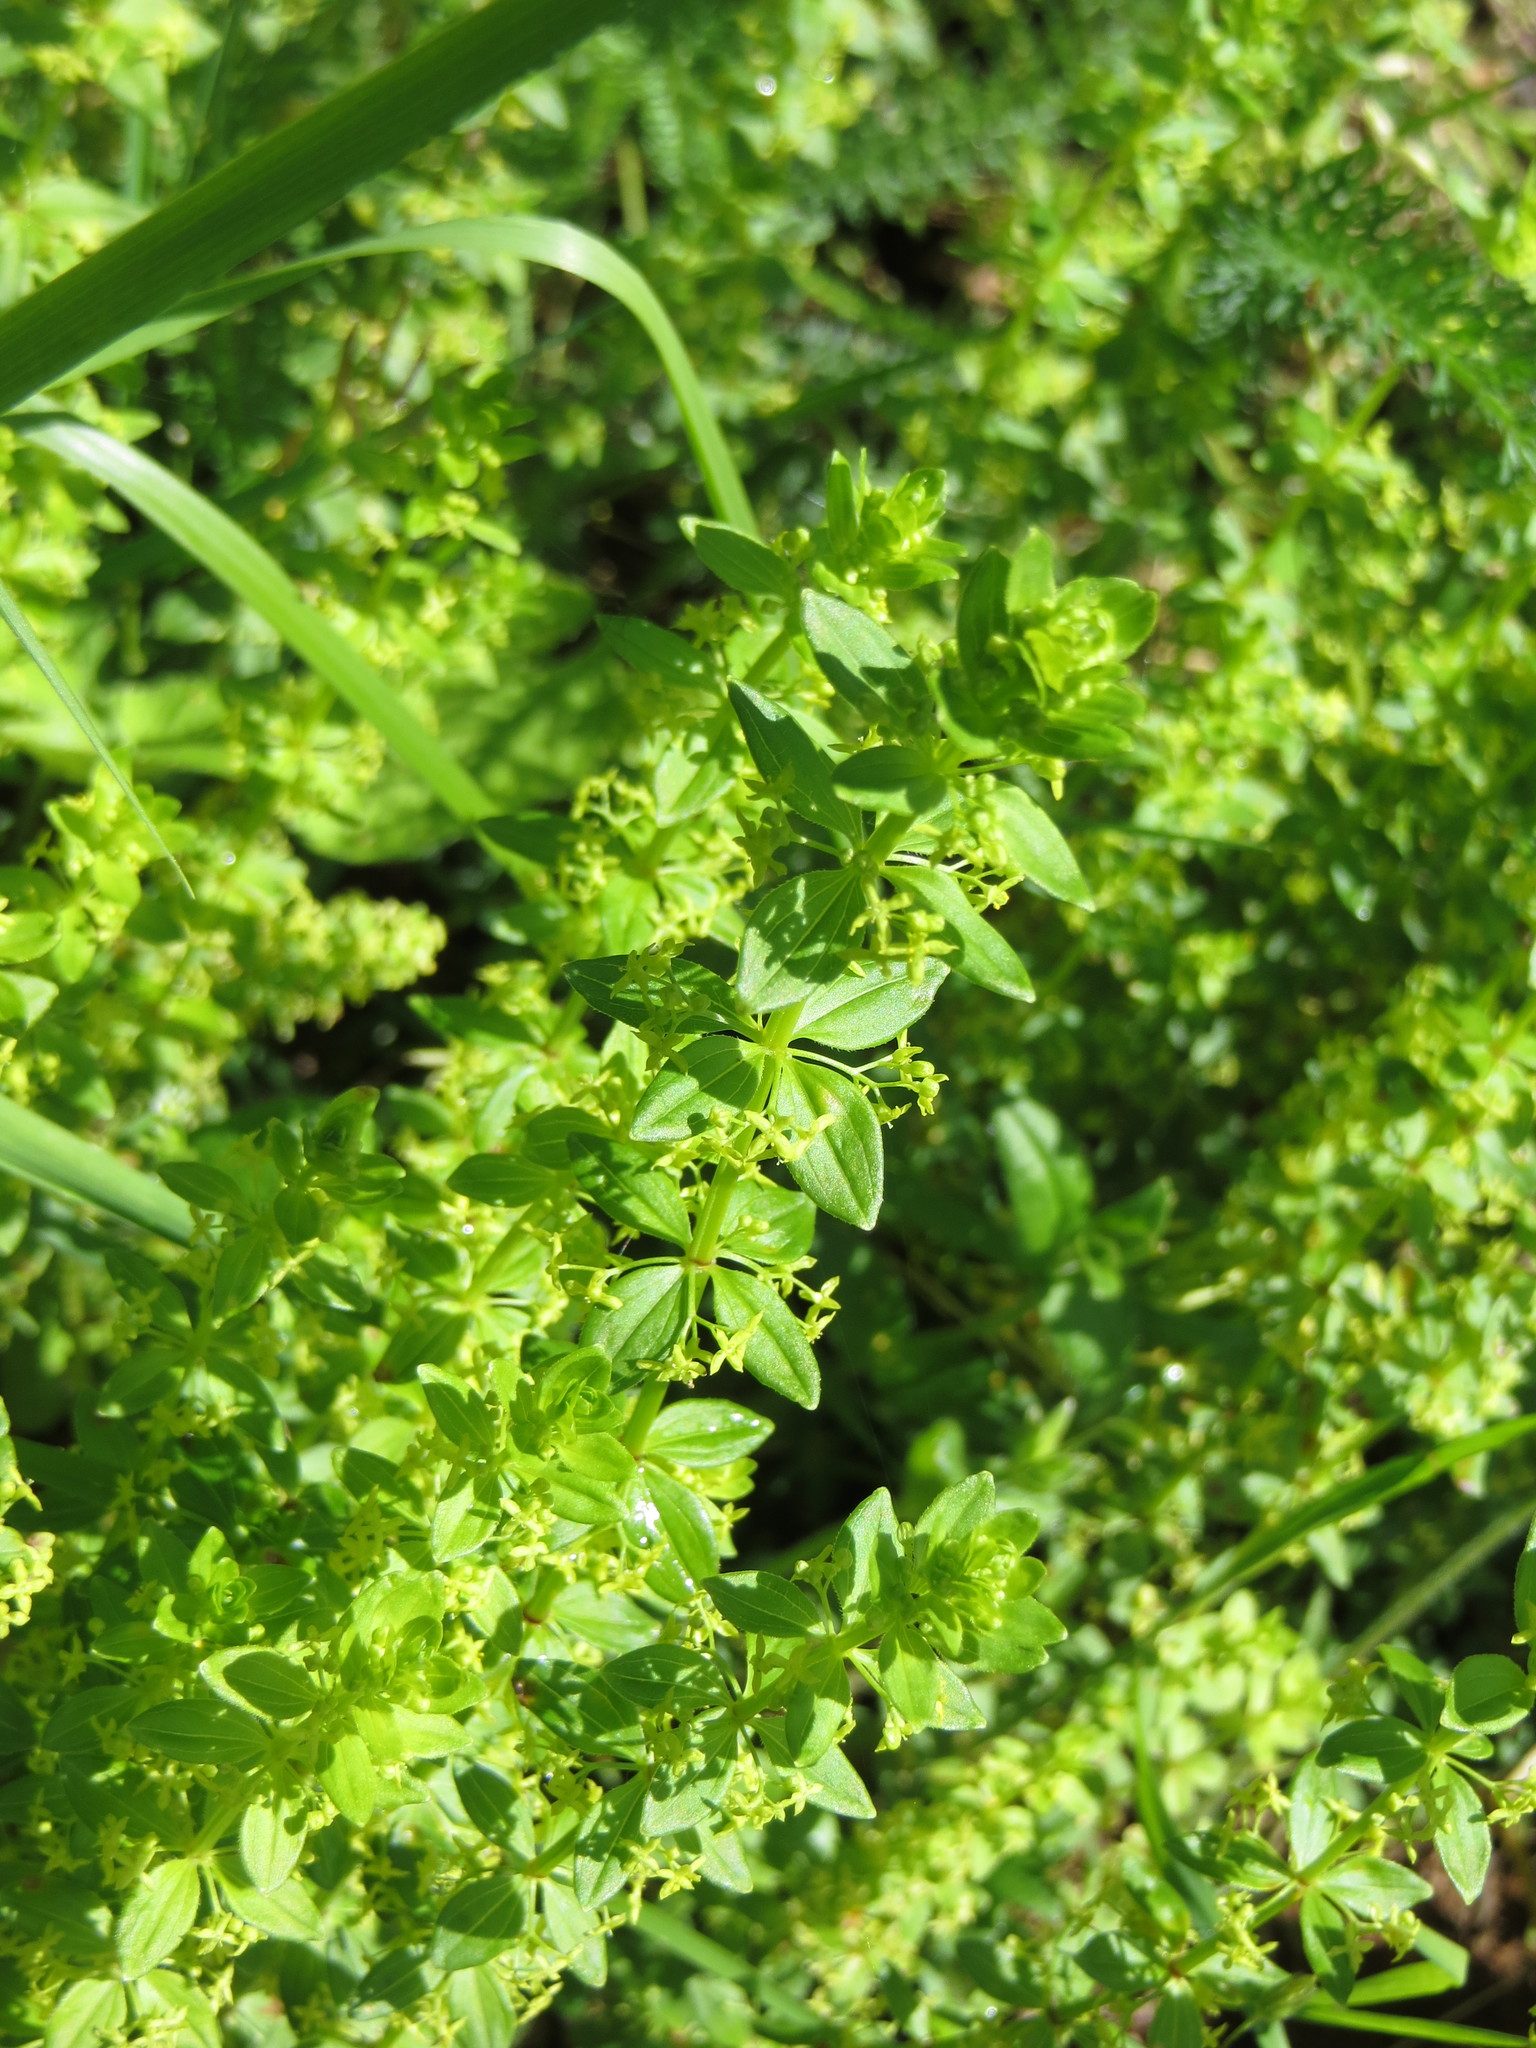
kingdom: Plantae
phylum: Tracheophyta
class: Magnoliopsida
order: Gentianales
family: Rubiaceae
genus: Cruciata
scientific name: Cruciata glabra
